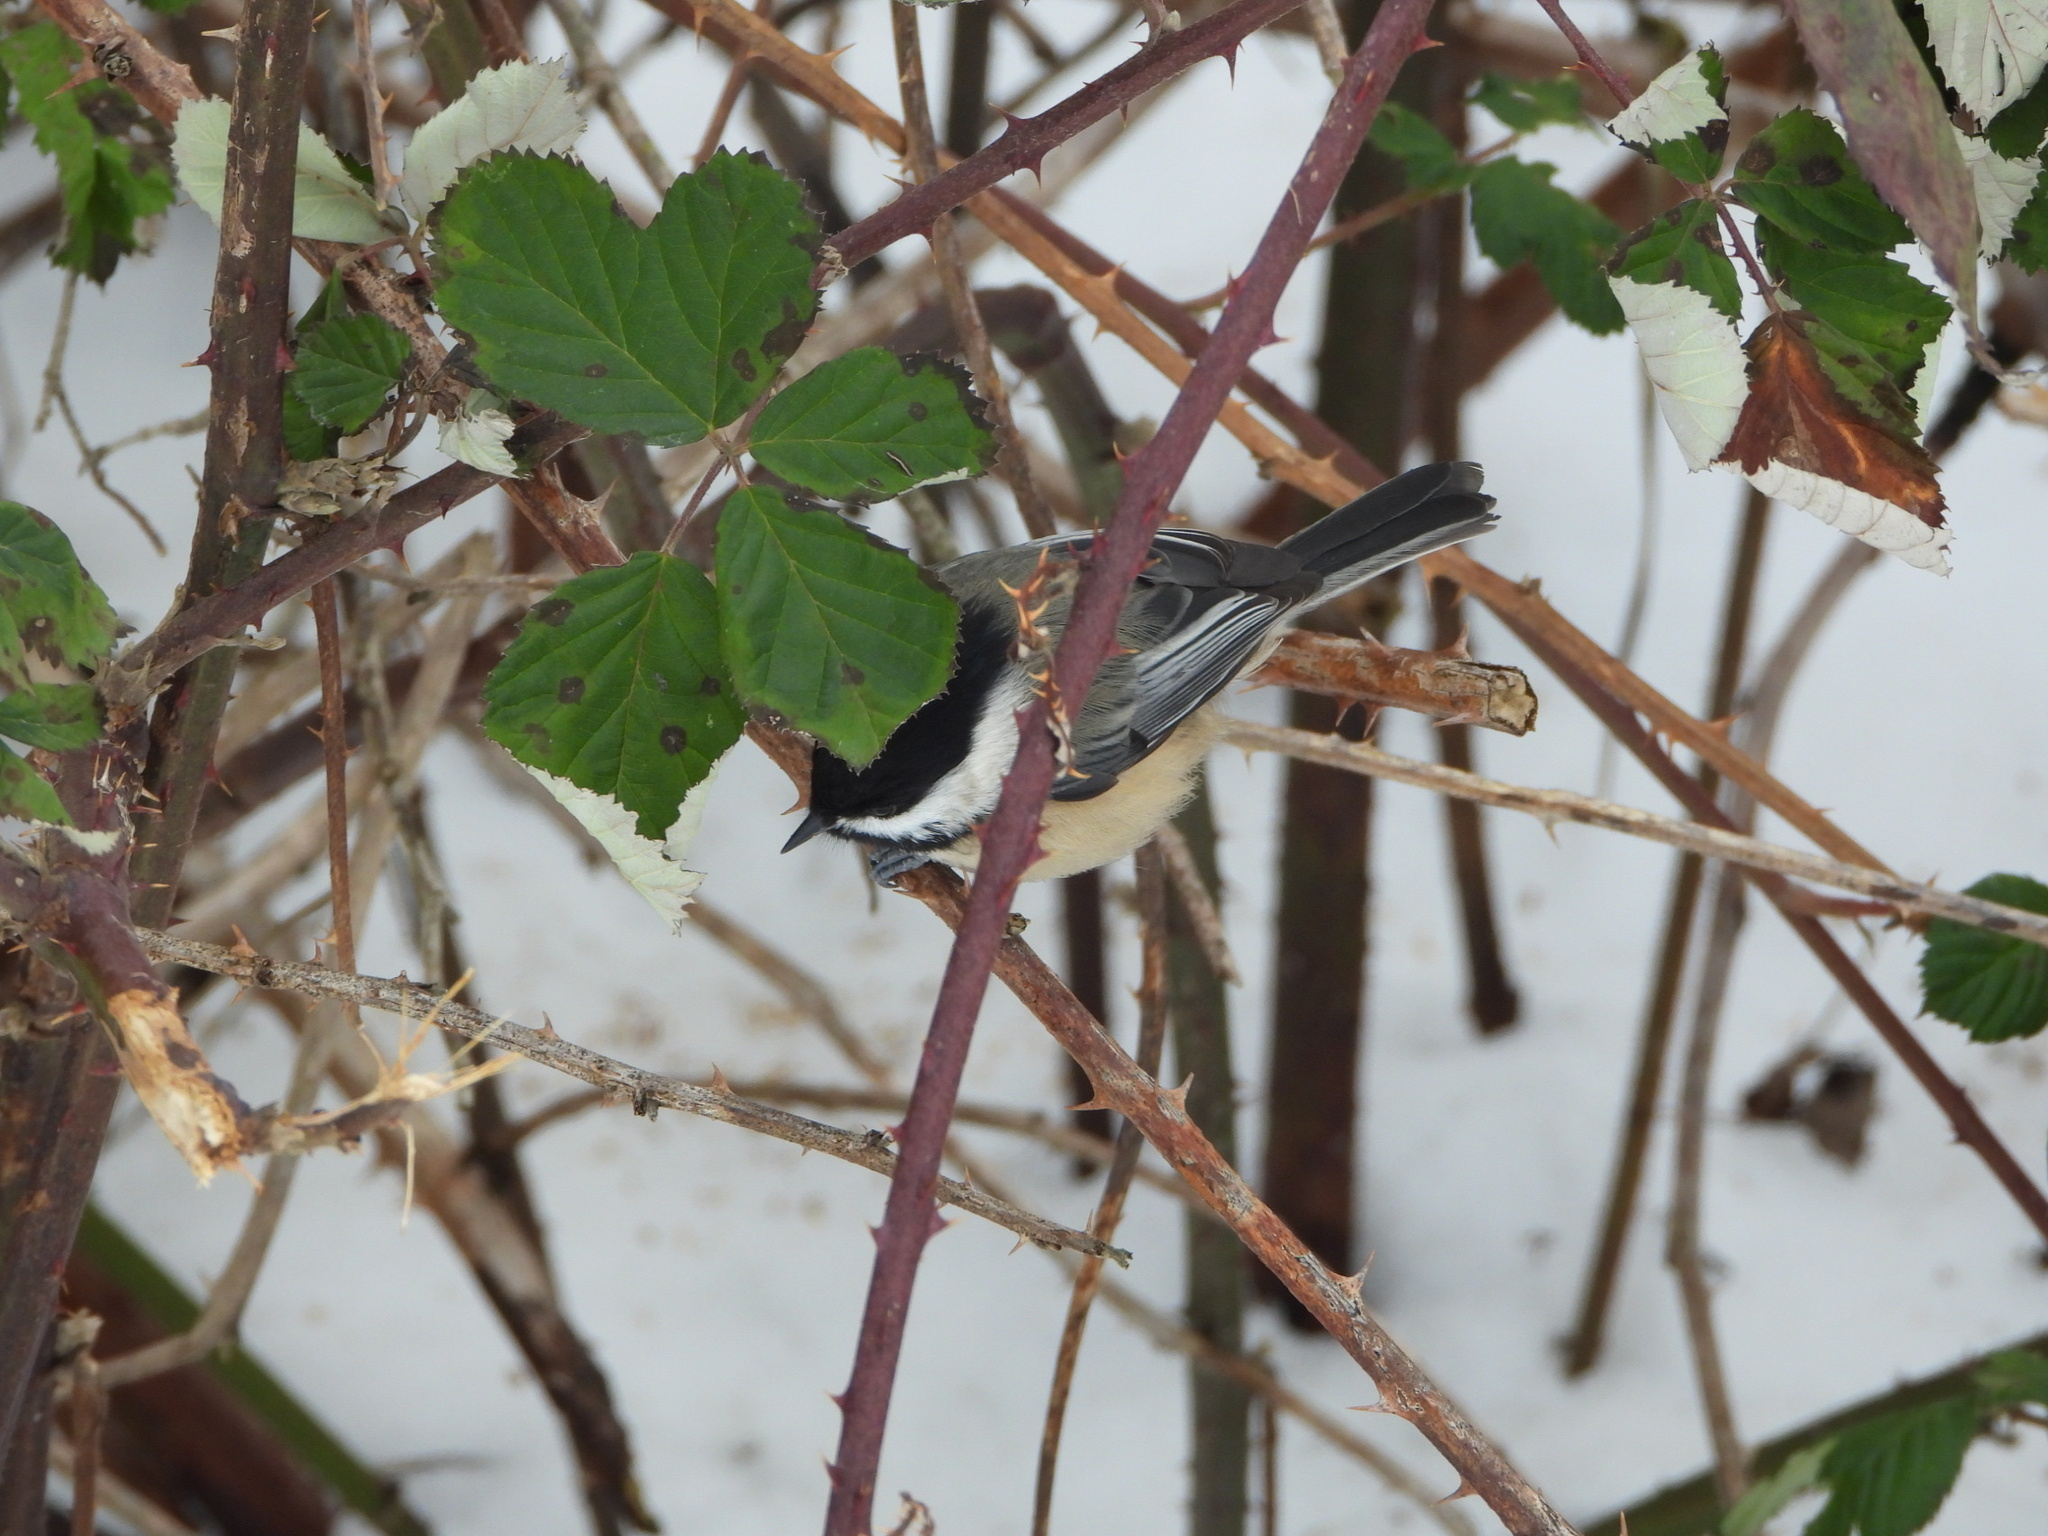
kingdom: Animalia
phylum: Chordata
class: Aves
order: Passeriformes
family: Paridae
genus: Poecile
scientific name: Poecile atricapillus
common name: Black-capped chickadee
